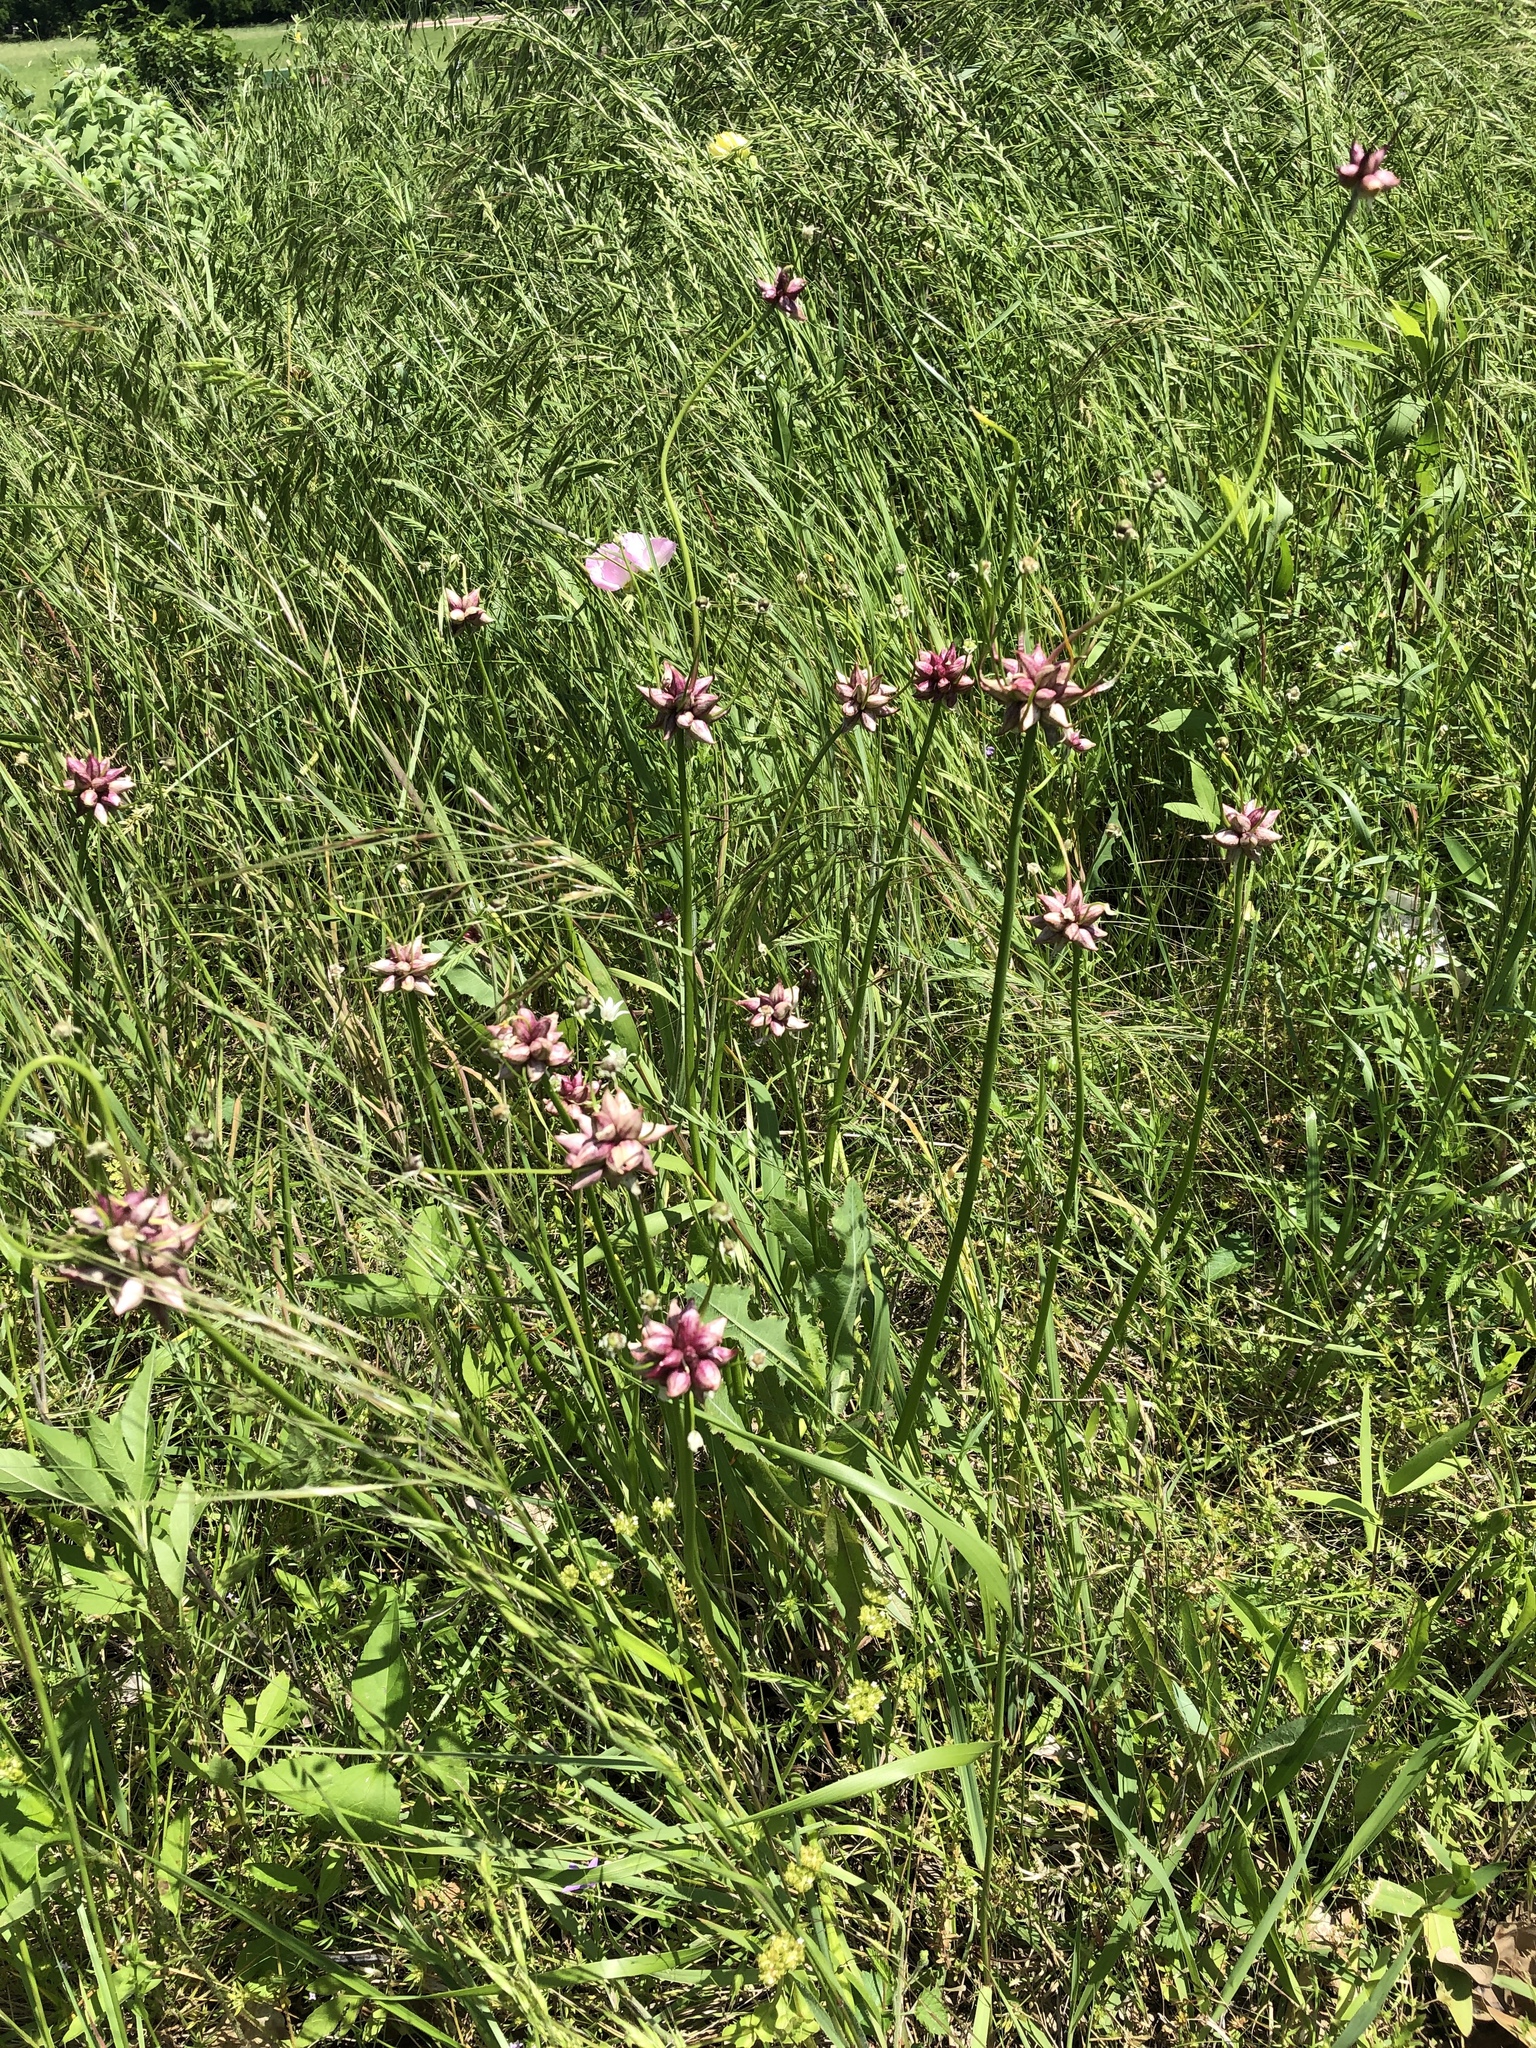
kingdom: Plantae
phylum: Tracheophyta
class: Liliopsida
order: Asparagales
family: Amaryllidaceae
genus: Allium
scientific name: Allium canadense
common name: Meadow garlic
